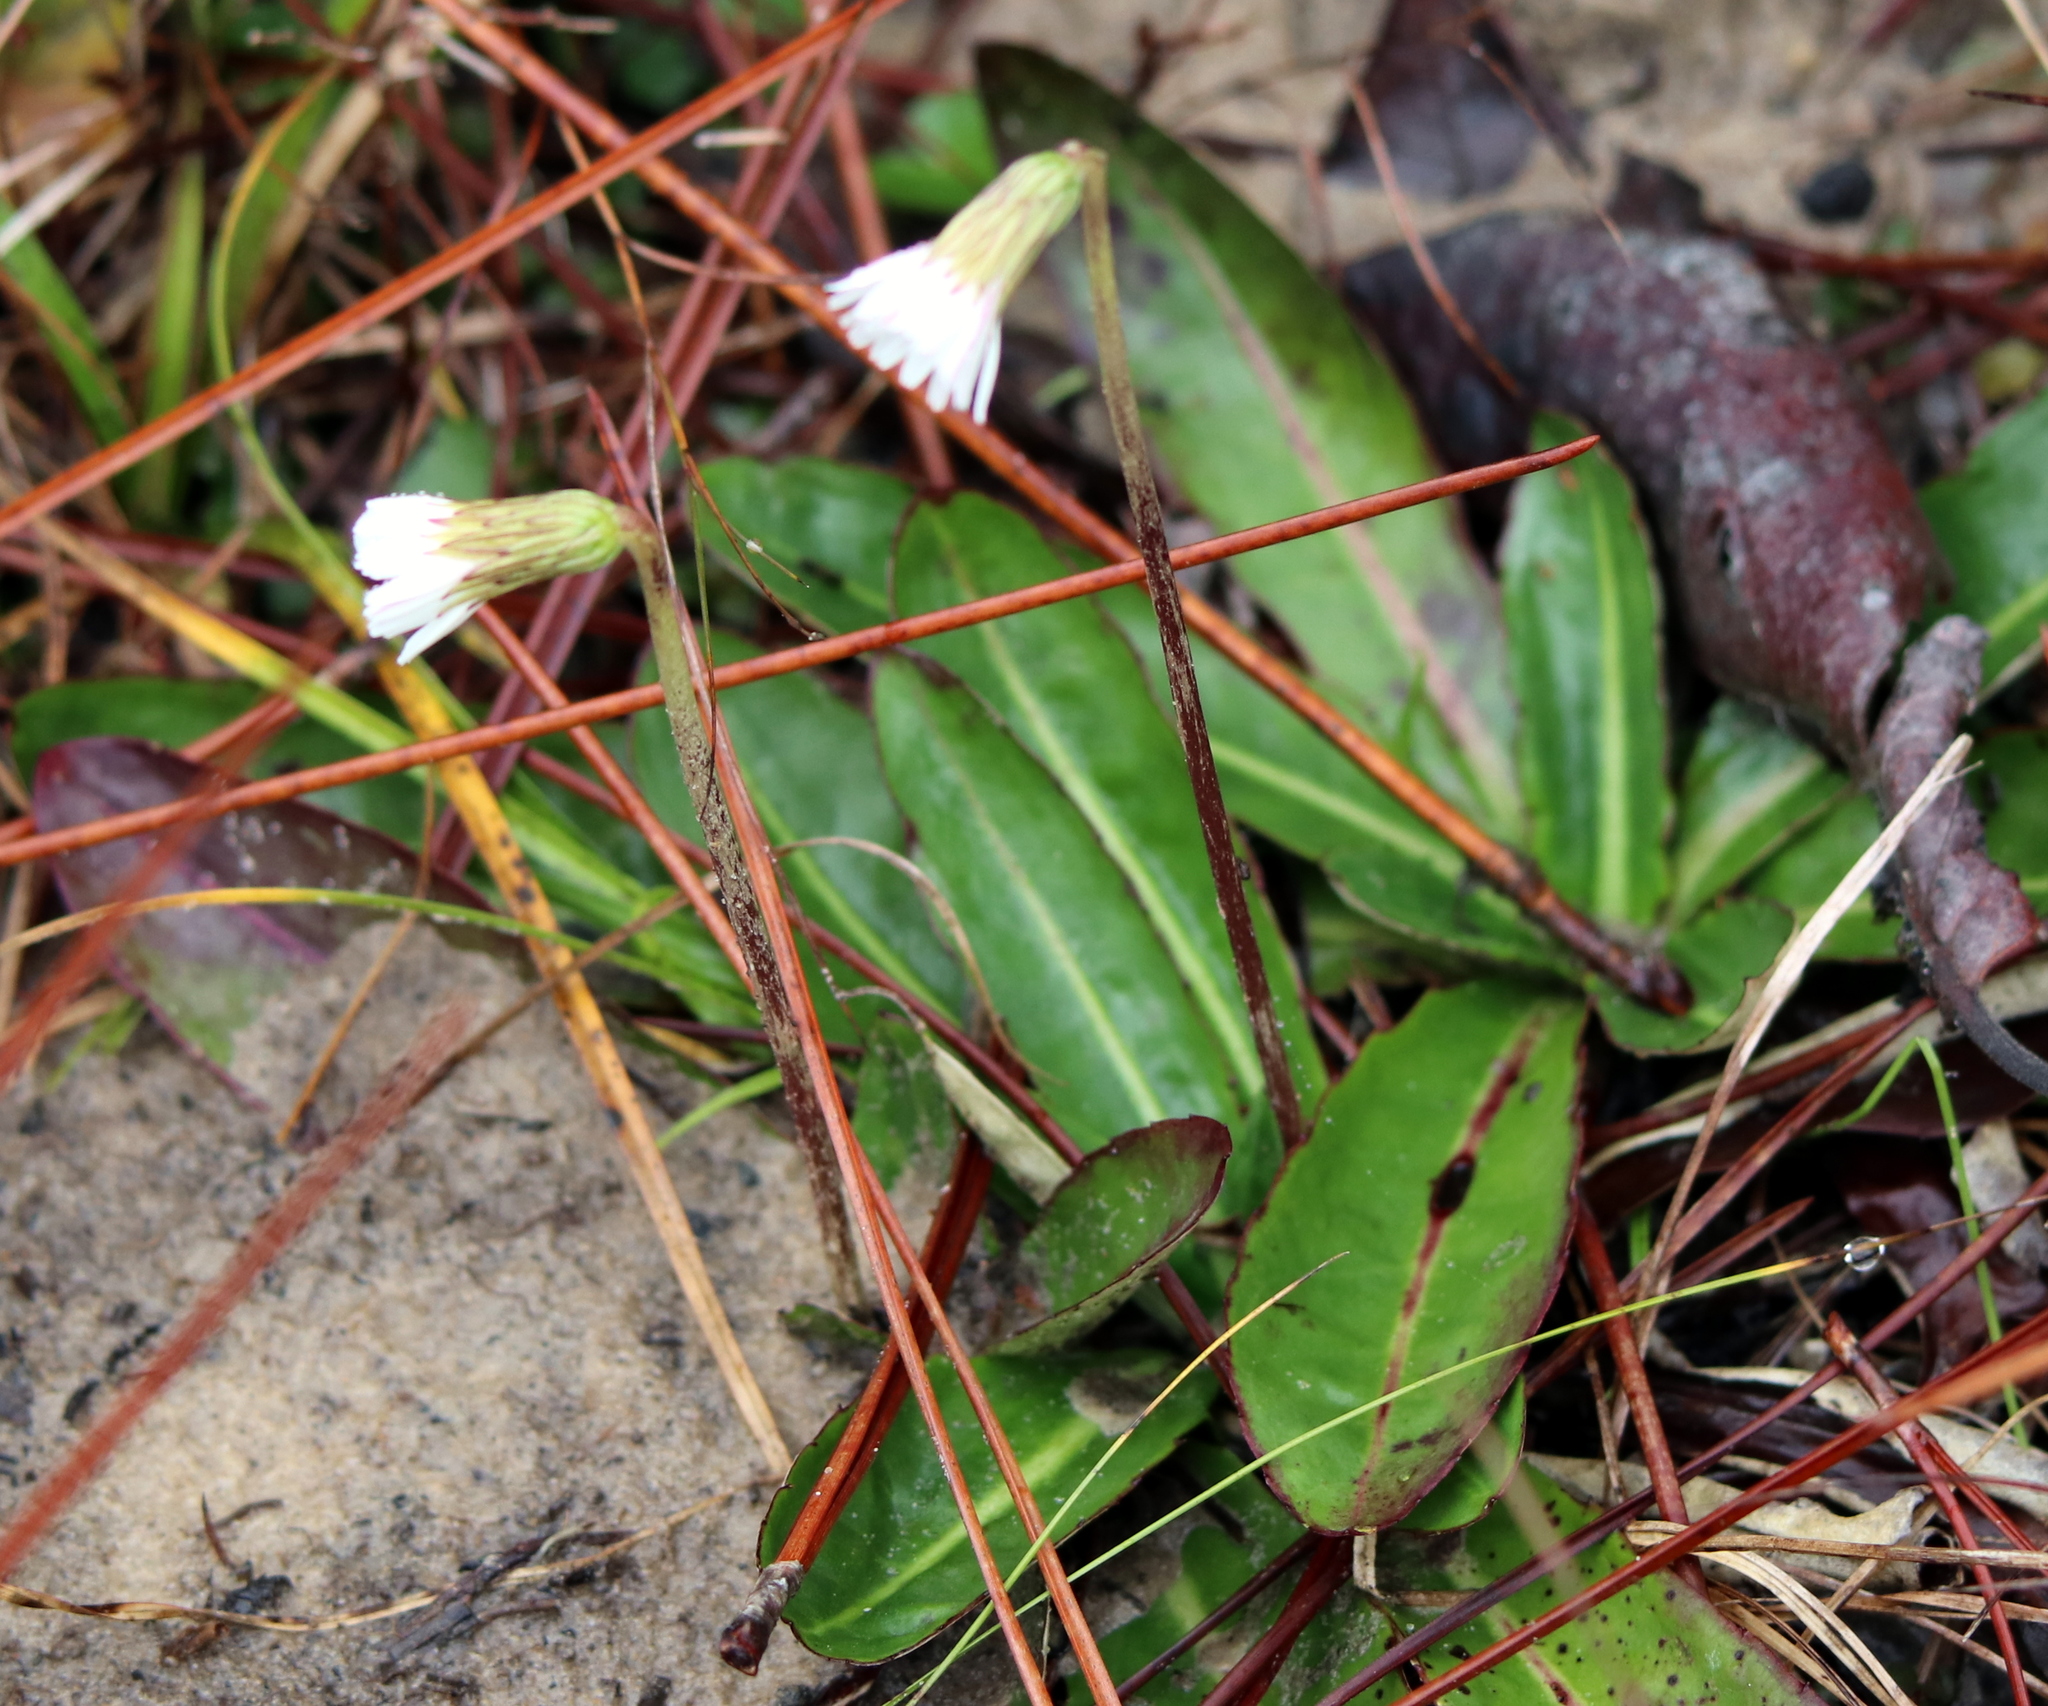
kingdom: Plantae
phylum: Tracheophyta
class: Magnoliopsida
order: Asterales
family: Asteraceae
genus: Chaptalia
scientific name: Chaptalia tomentosa
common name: Woolly sunbonnet
